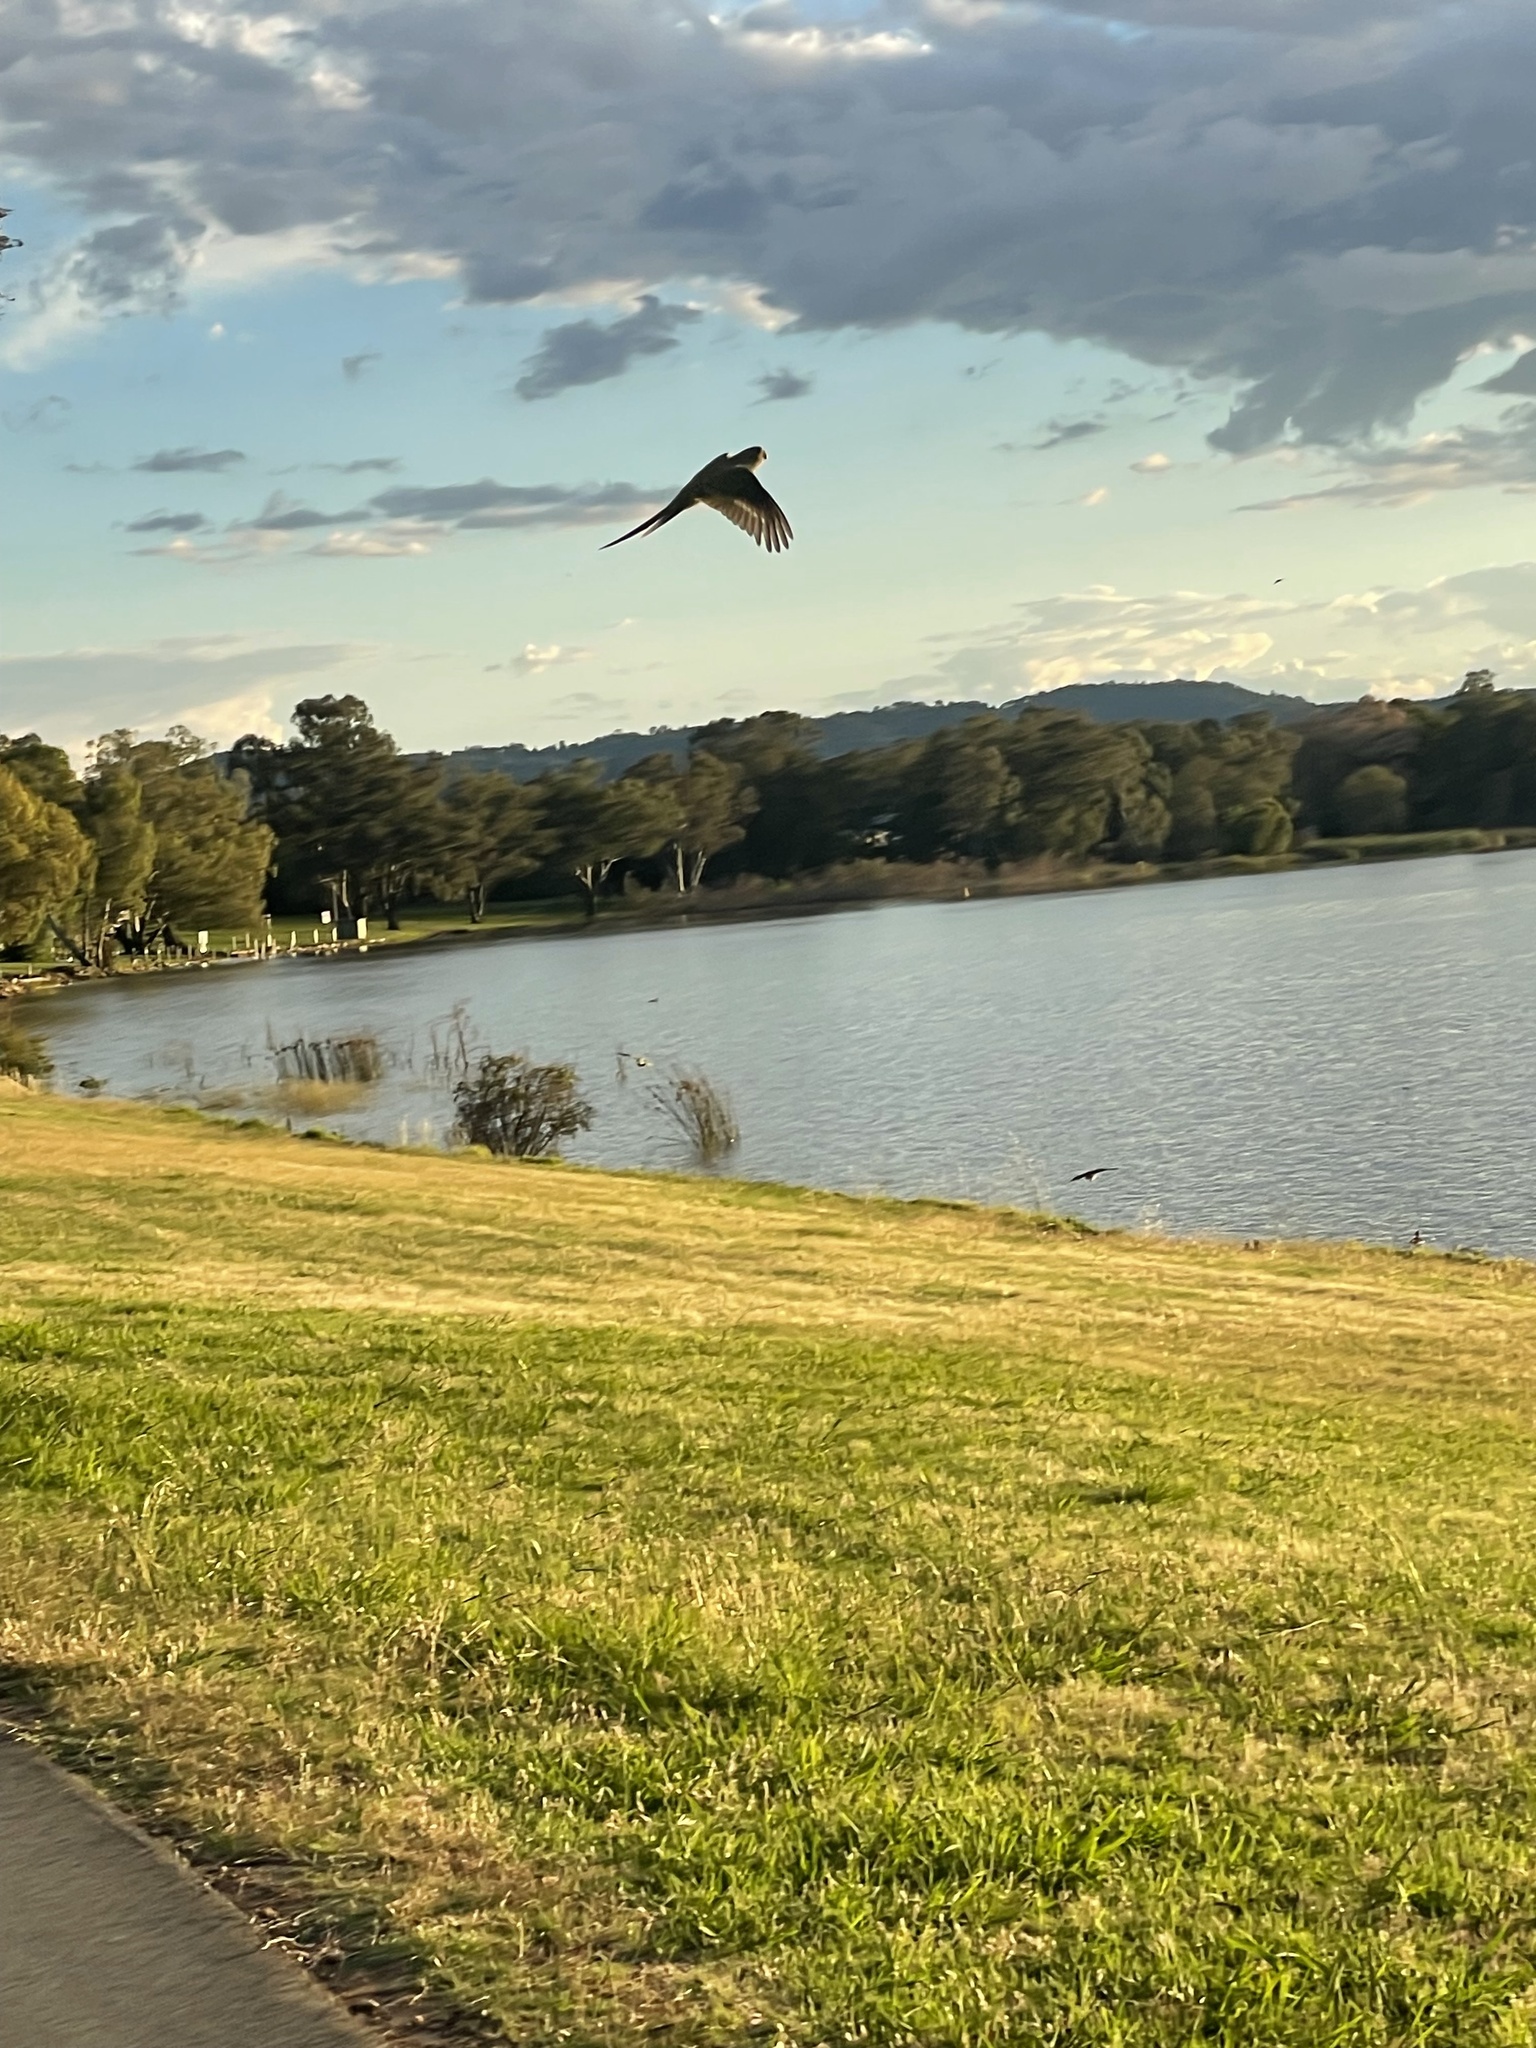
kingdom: Animalia
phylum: Chordata
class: Aves
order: Psittaciformes
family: Psittacidae
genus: Psephotus
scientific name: Psephotus haematonotus
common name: Red-rumped parrot
